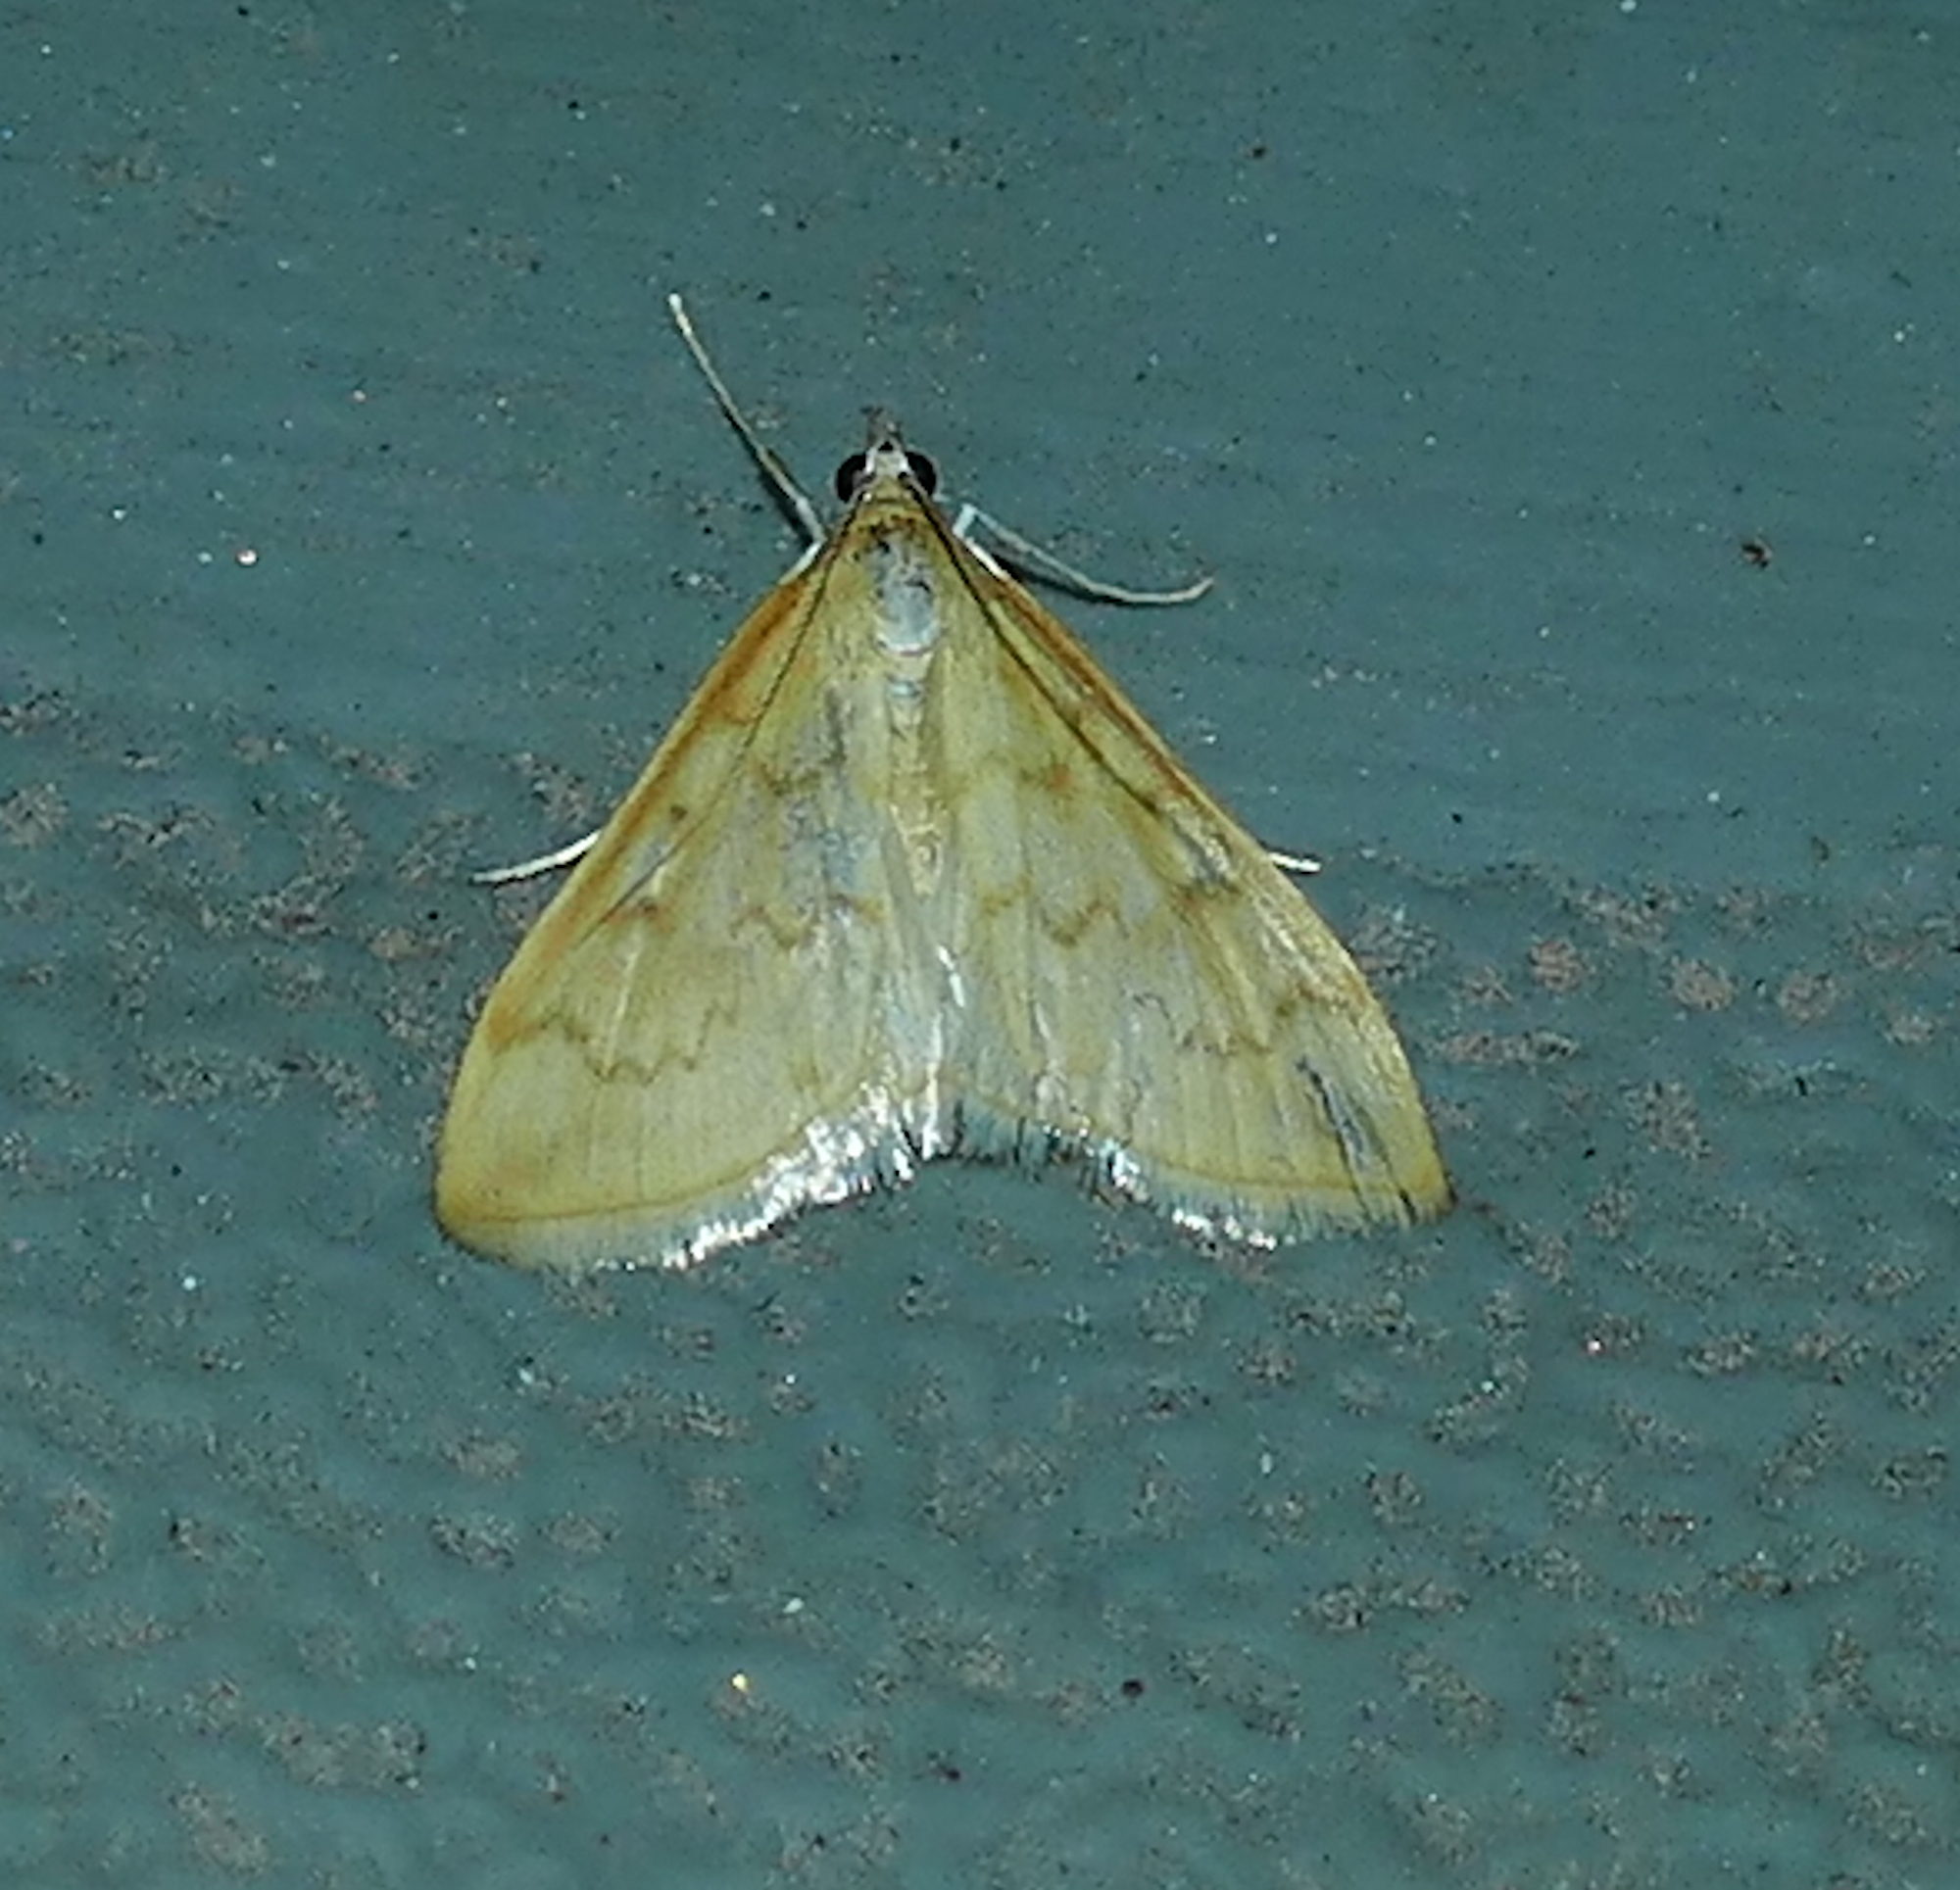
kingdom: Animalia
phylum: Arthropoda
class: Insecta
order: Lepidoptera
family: Crambidae
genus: Hahncappsia
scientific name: Hahncappsia pergilvalis
